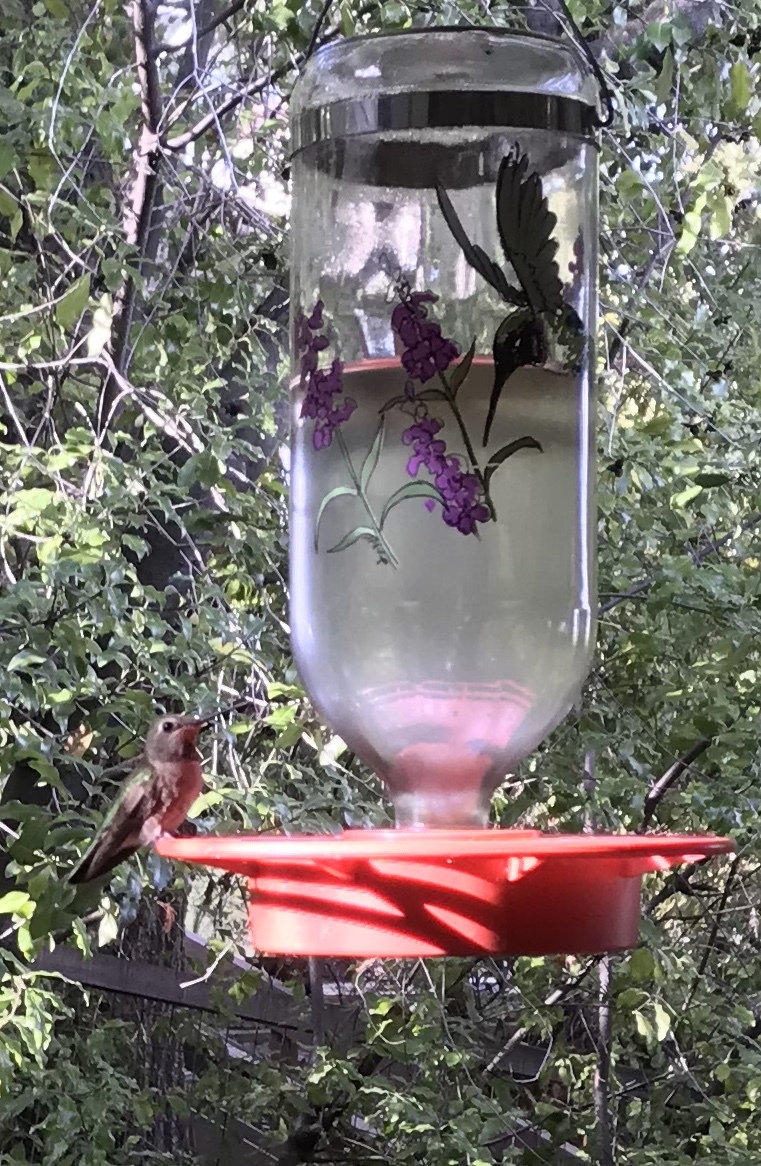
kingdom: Animalia
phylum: Chordata
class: Aves
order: Apodiformes
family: Trochilidae
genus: Calypte
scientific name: Calypte anna
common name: Anna's hummingbird
